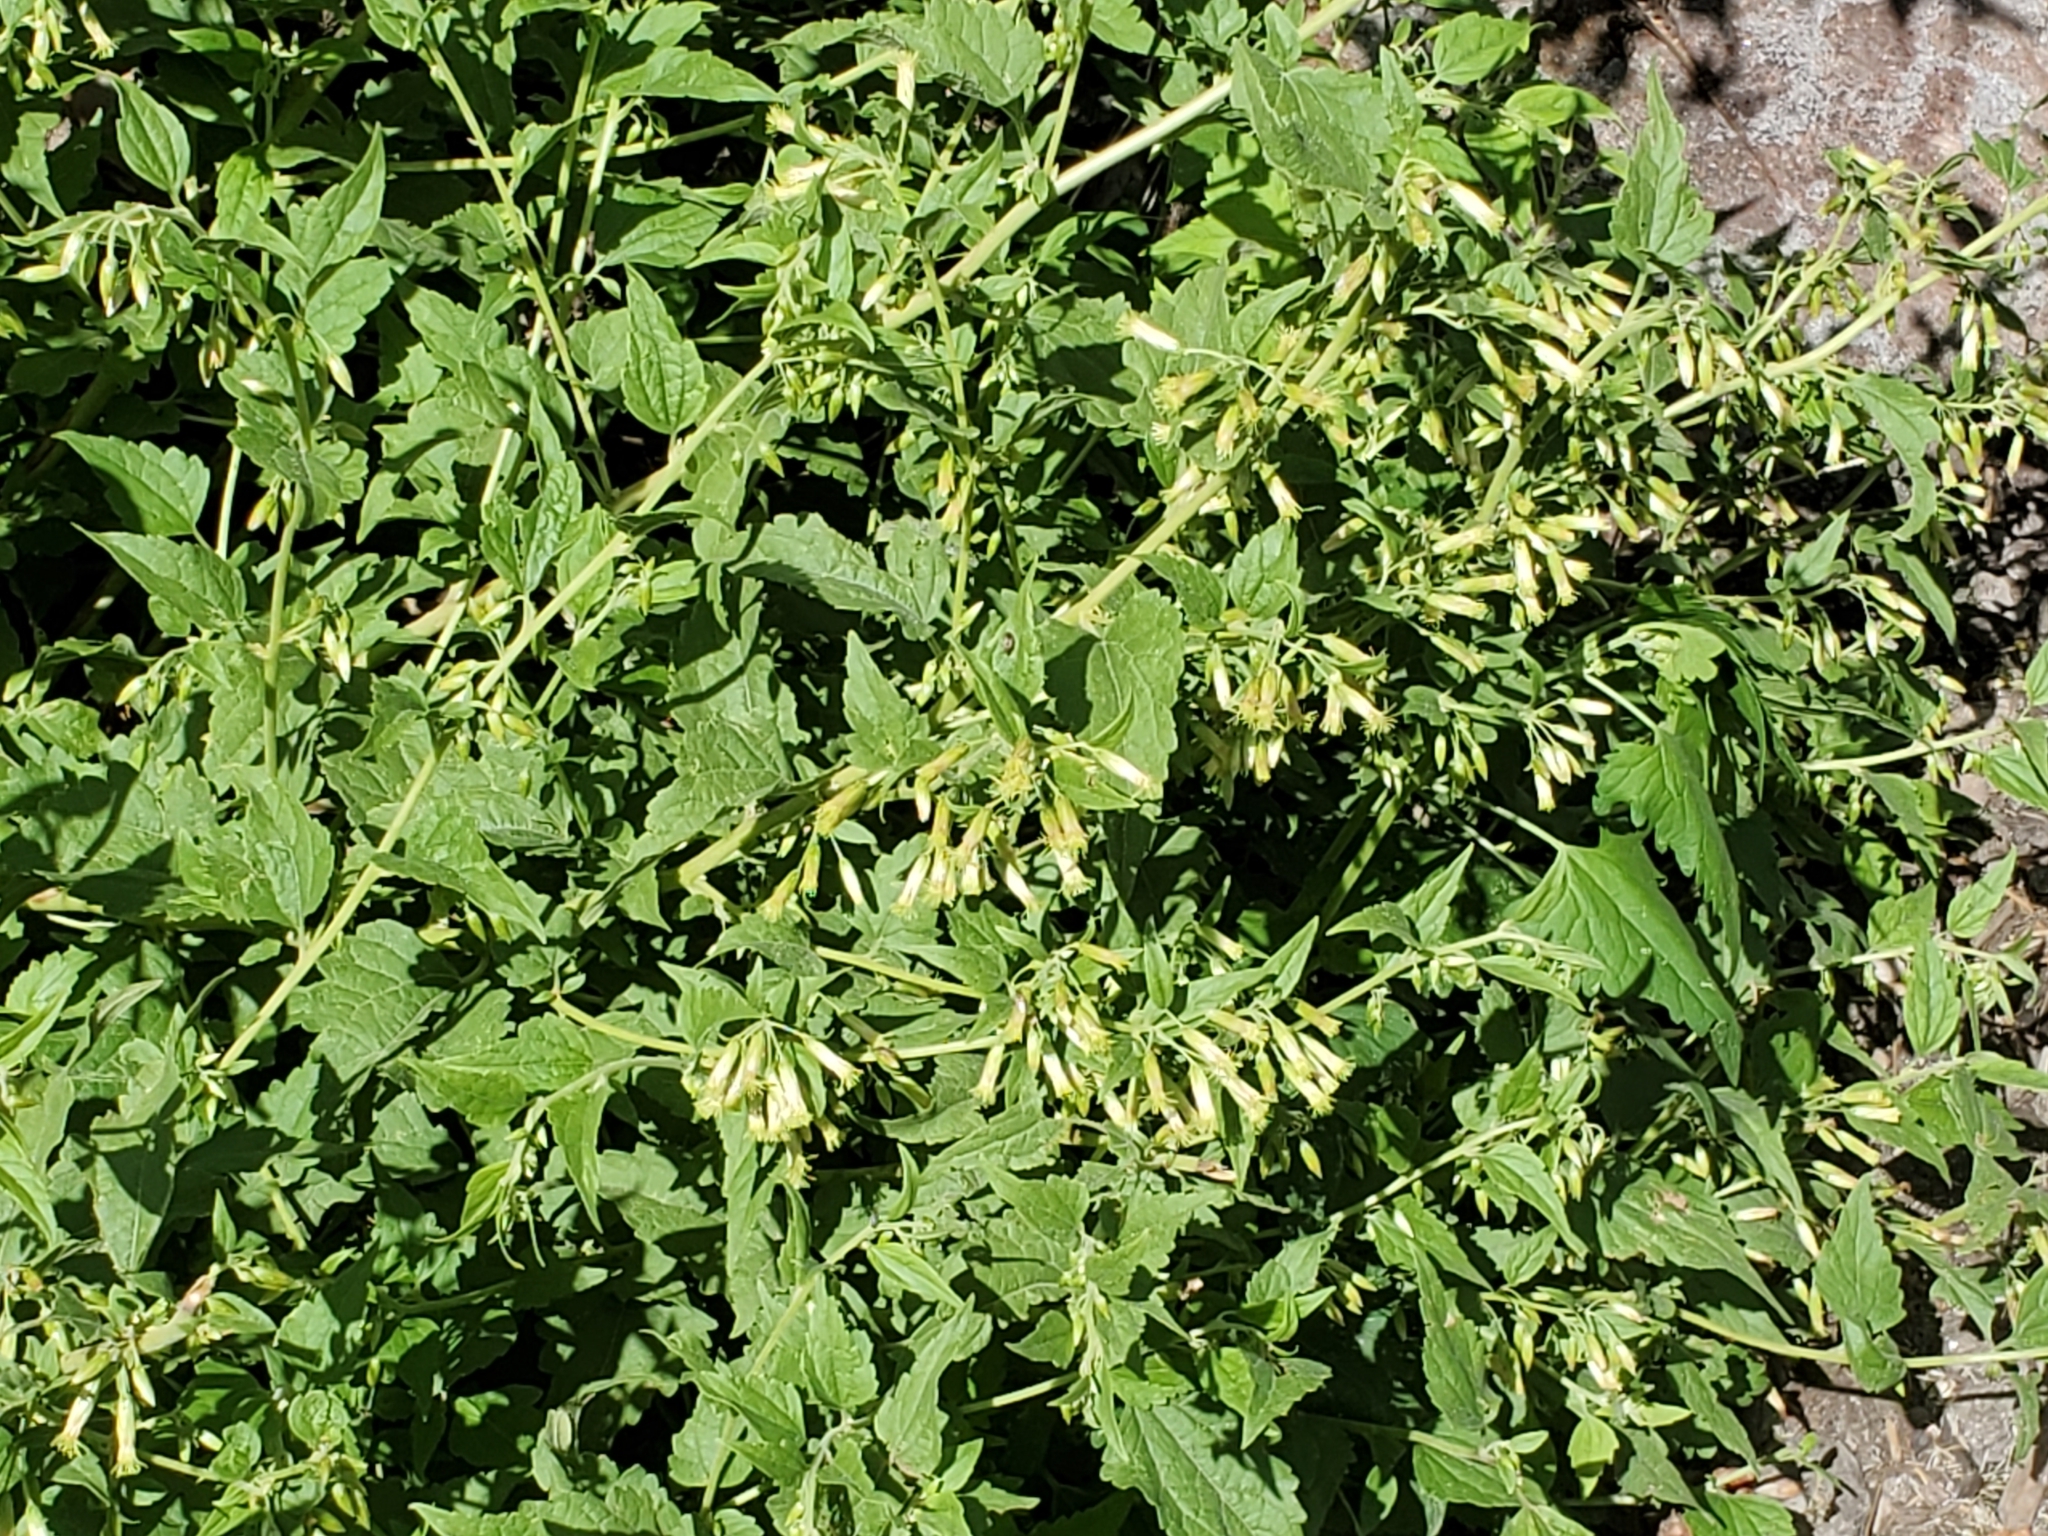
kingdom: Plantae
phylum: Tracheophyta
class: Magnoliopsida
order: Asterales
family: Asteraceae
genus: Brickellia
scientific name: Brickellia rusbyi
